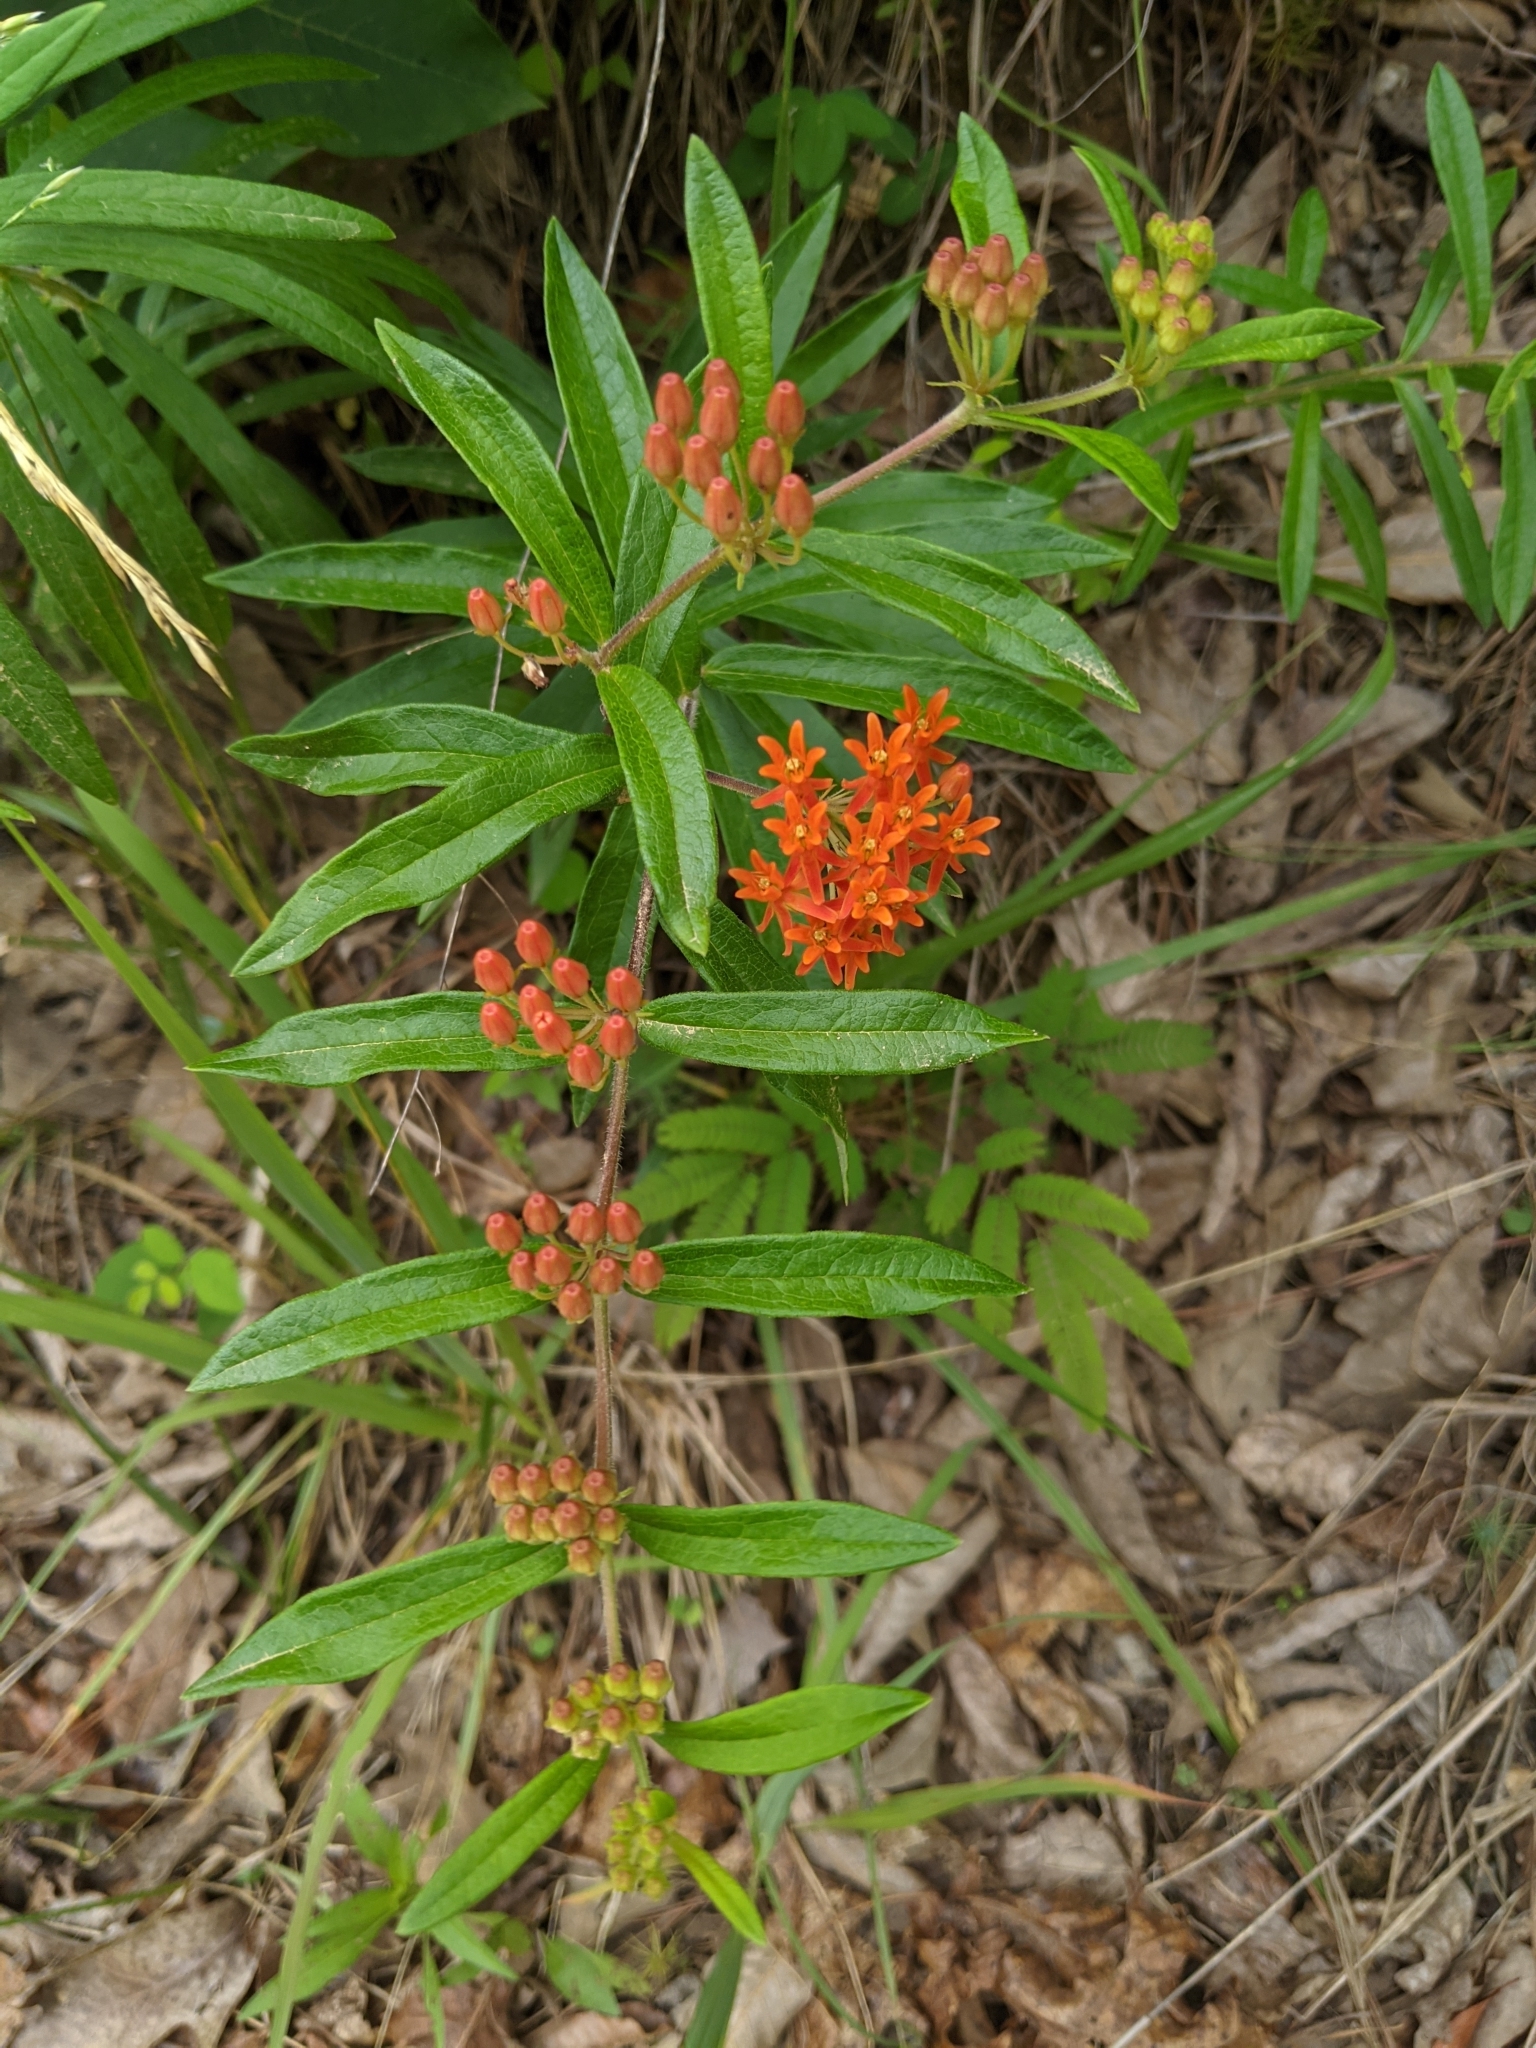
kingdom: Plantae
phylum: Tracheophyta
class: Magnoliopsida
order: Gentianales
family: Apocynaceae
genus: Asclepias
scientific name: Asclepias tuberosa
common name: Butterfly milkweed
